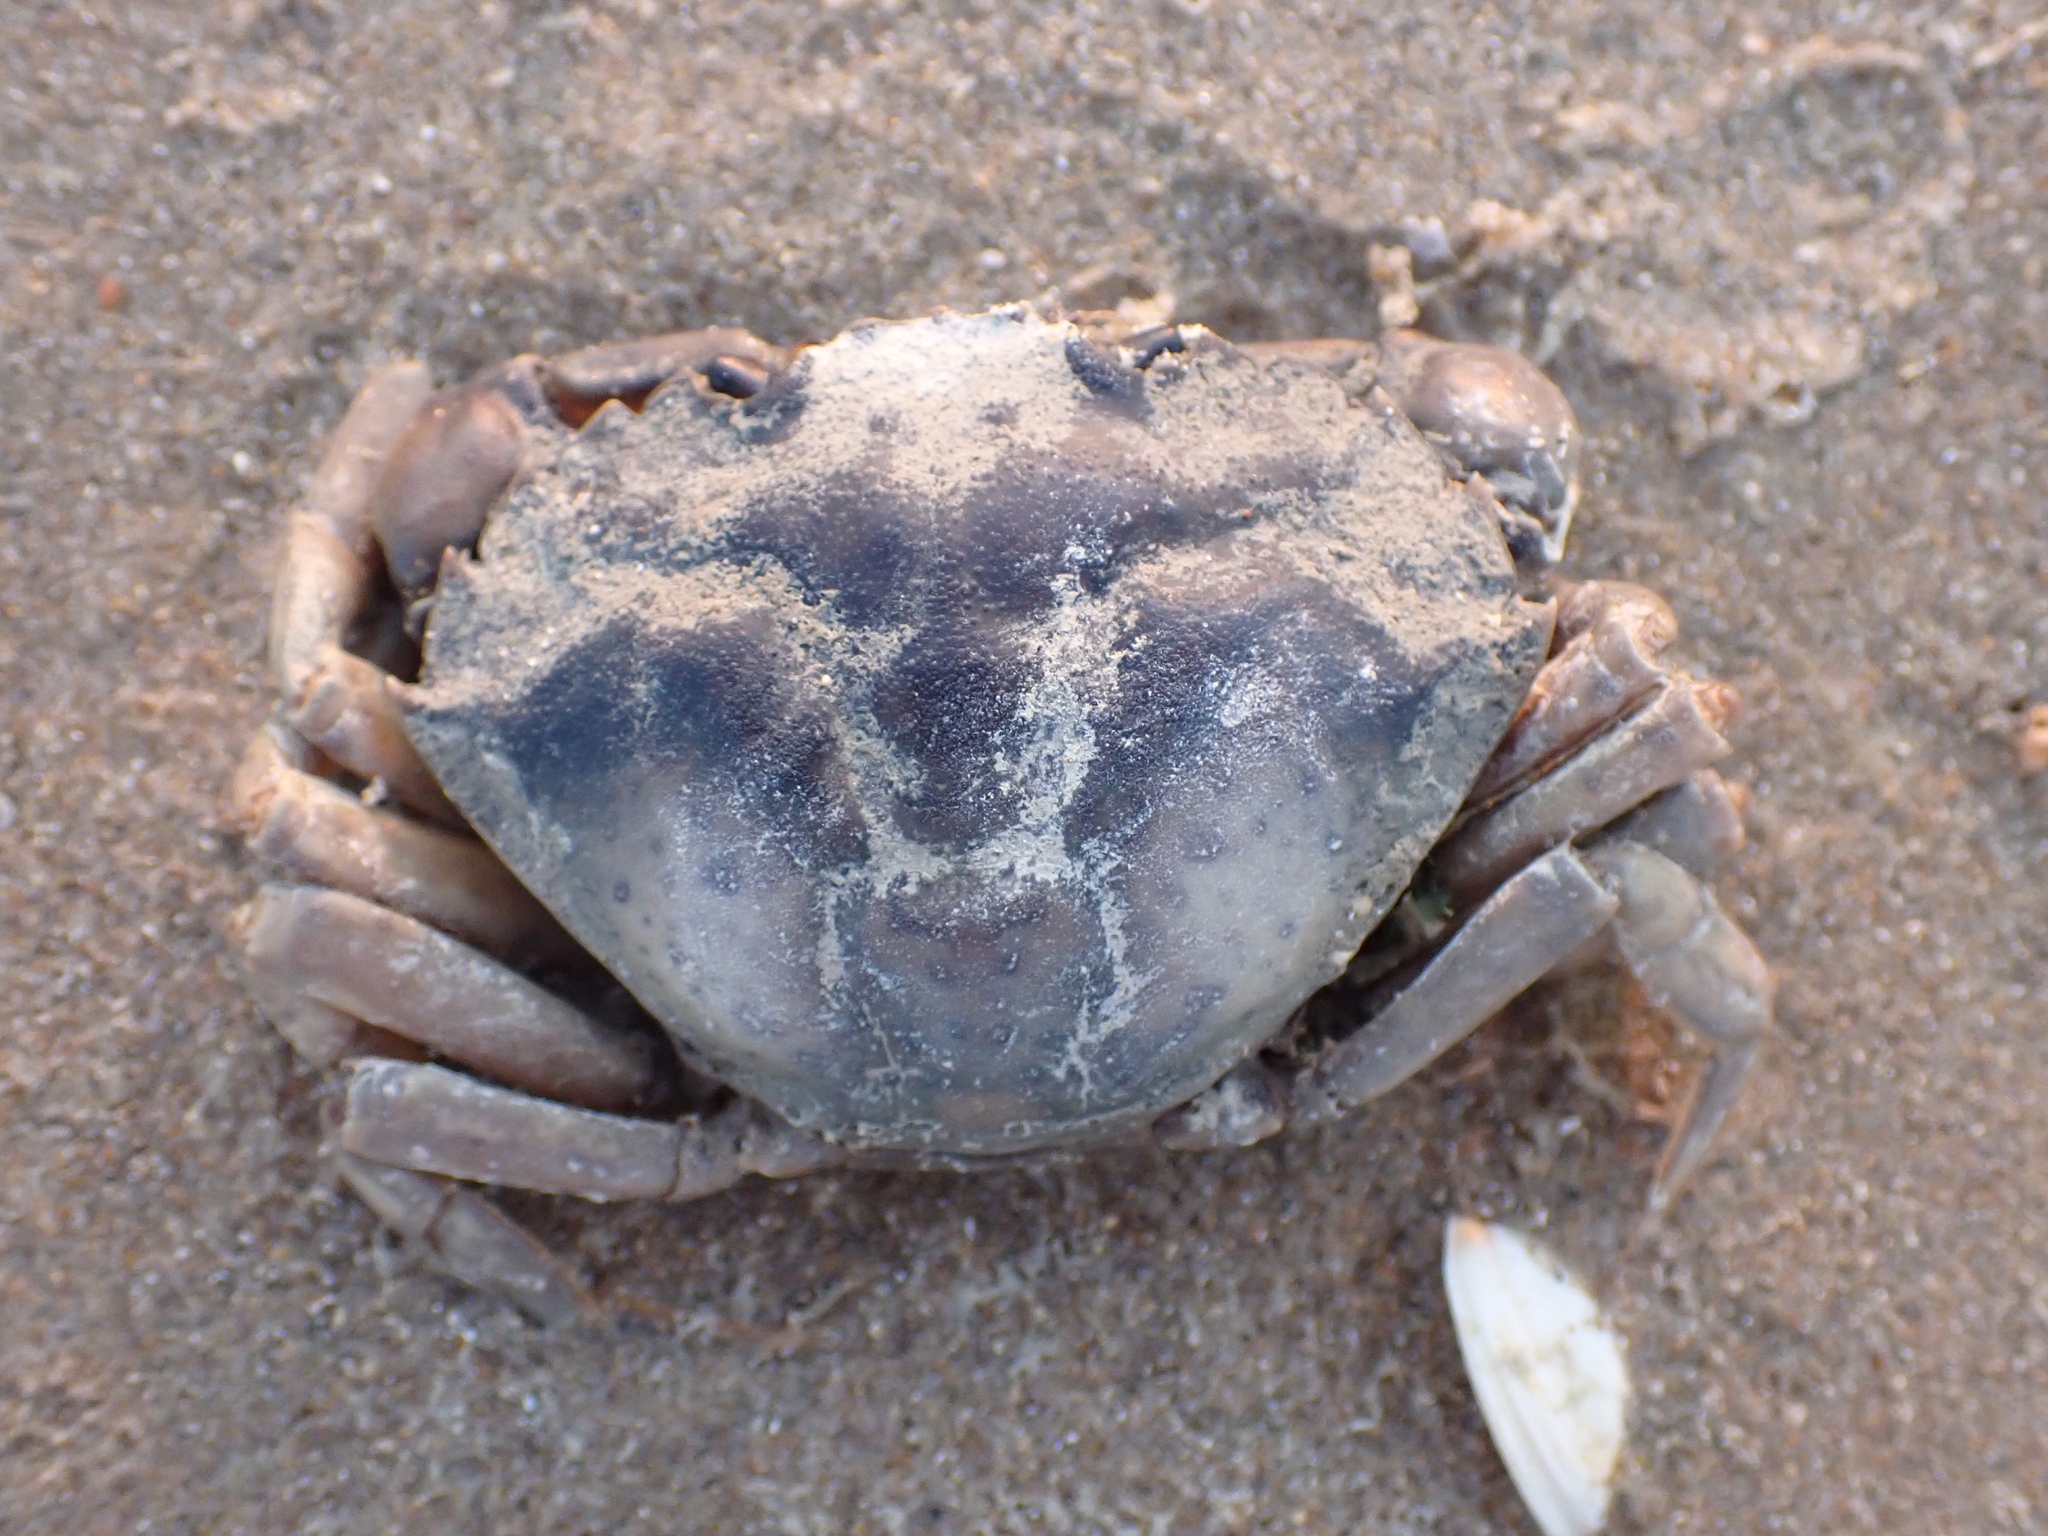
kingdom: Animalia
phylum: Arthropoda
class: Malacostraca
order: Decapoda
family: Carcinidae
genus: Carcinus
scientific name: Carcinus maenas
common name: European green crab
